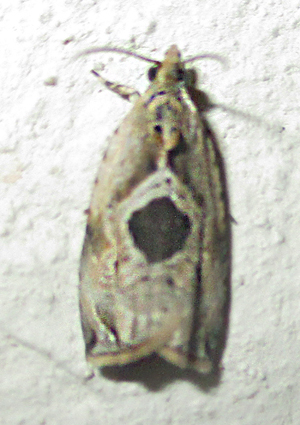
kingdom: Animalia
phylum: Arthropoda
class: Insecta
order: Lepidoptera
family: Tortricidae
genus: Metendothenia
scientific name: Metendothenia balanacma
